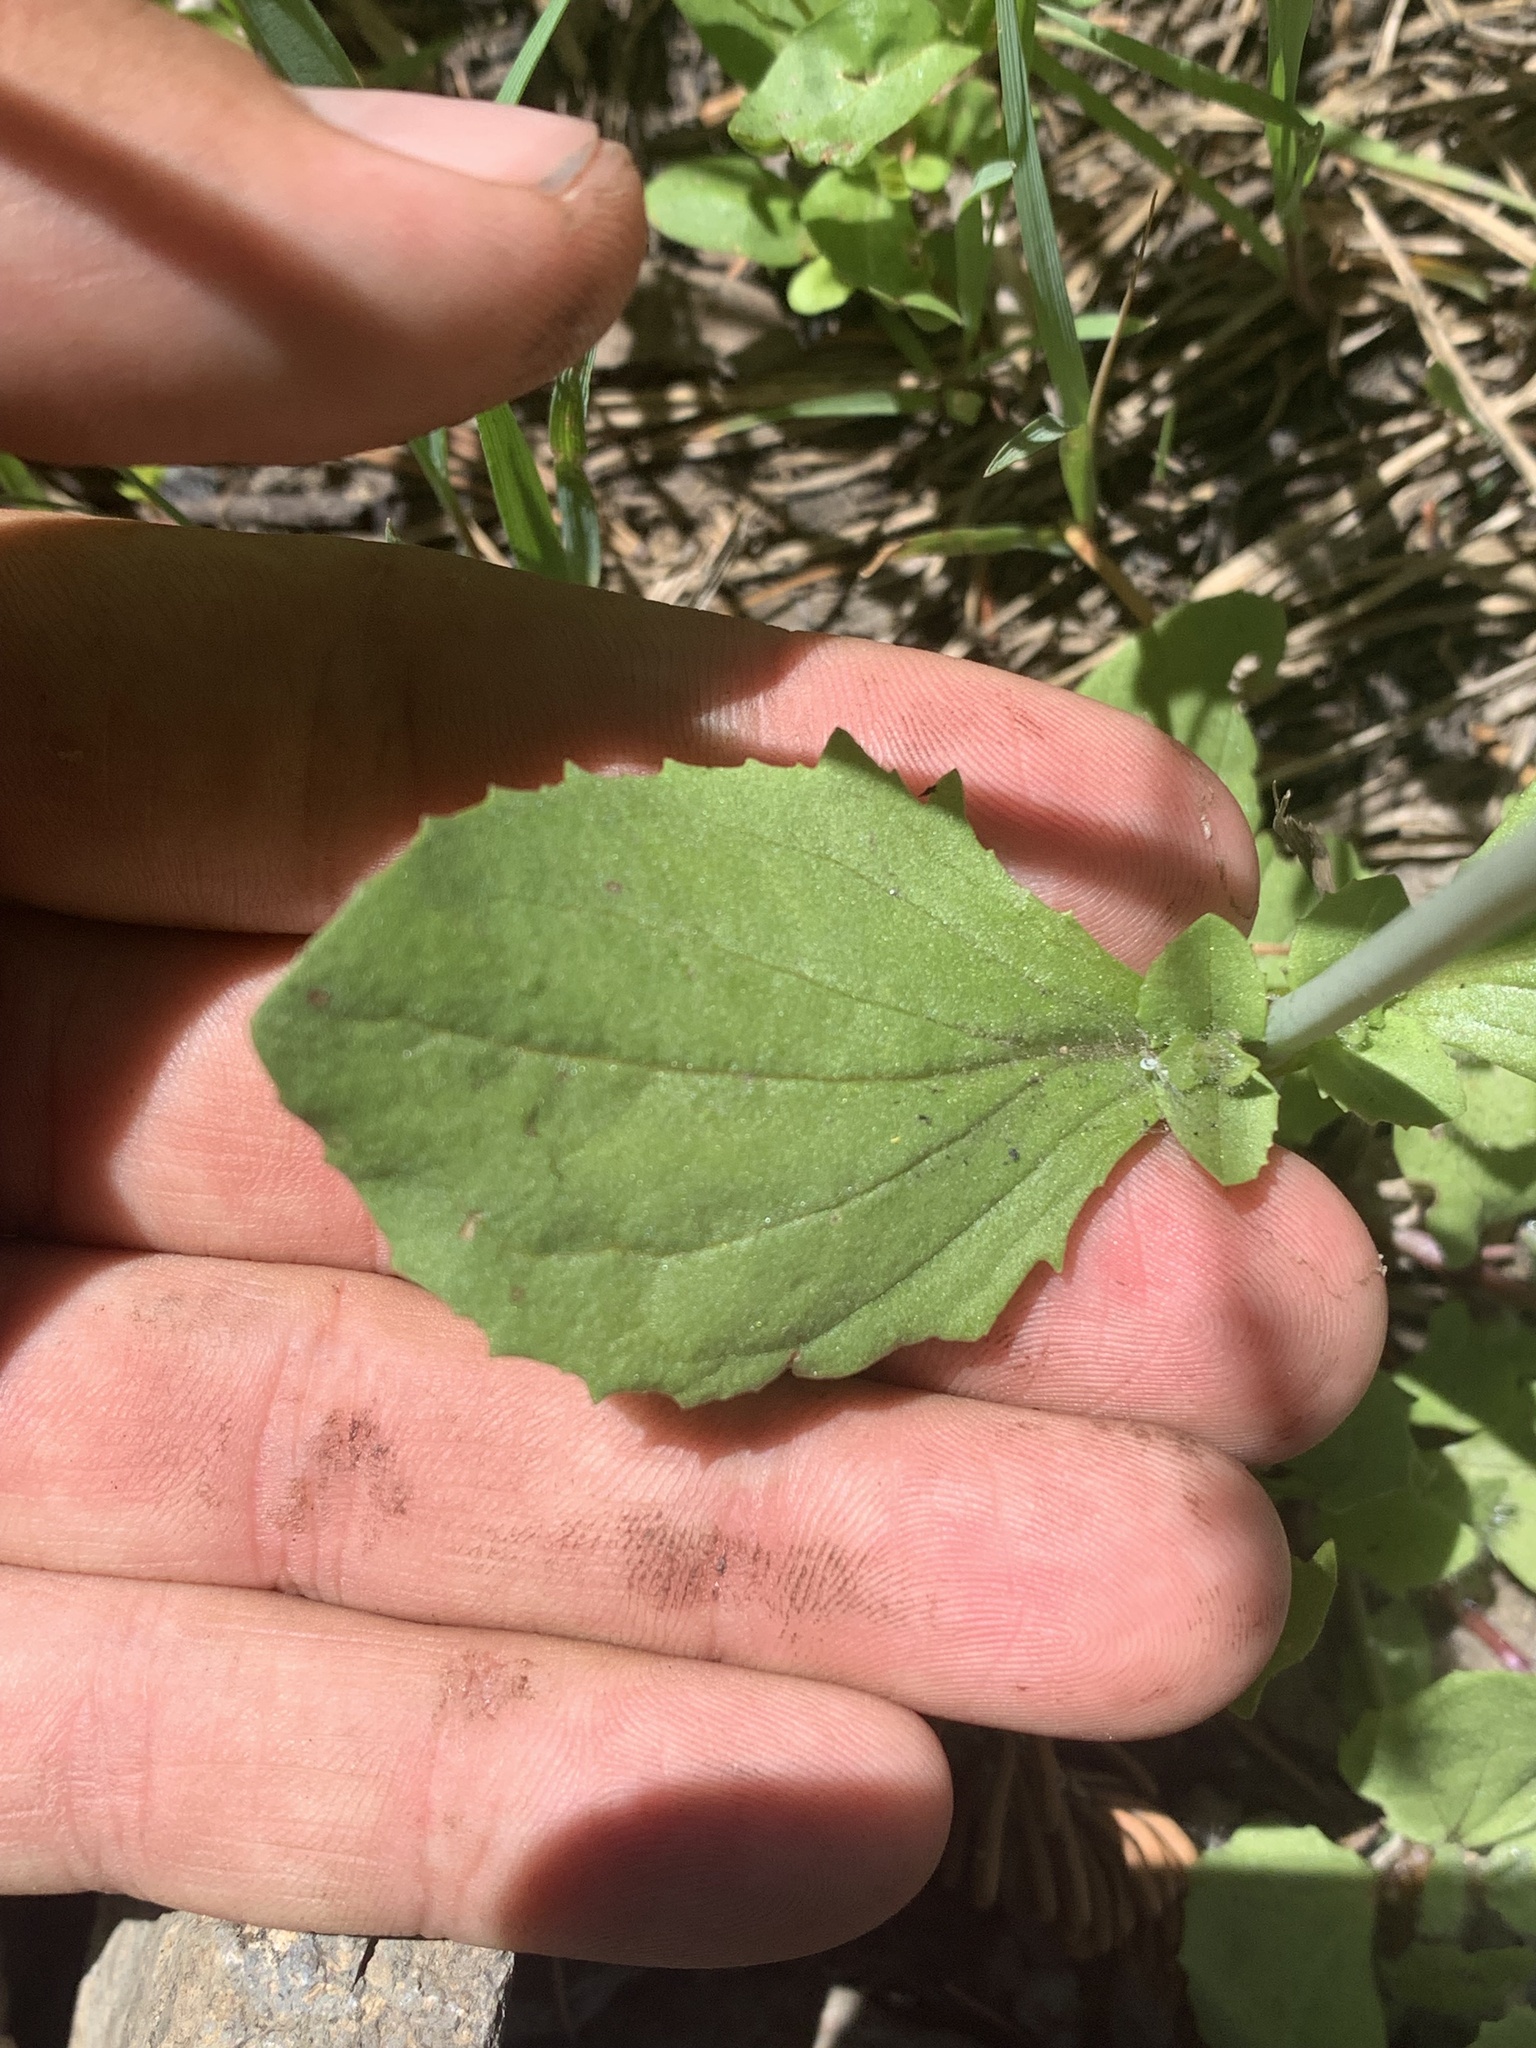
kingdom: Plantae
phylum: Tracheophyta
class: Magnoliopsida
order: Lamiales
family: Phrymaceae
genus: Erythranthe
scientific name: Erythranthe guttata
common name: Monkeyflower
